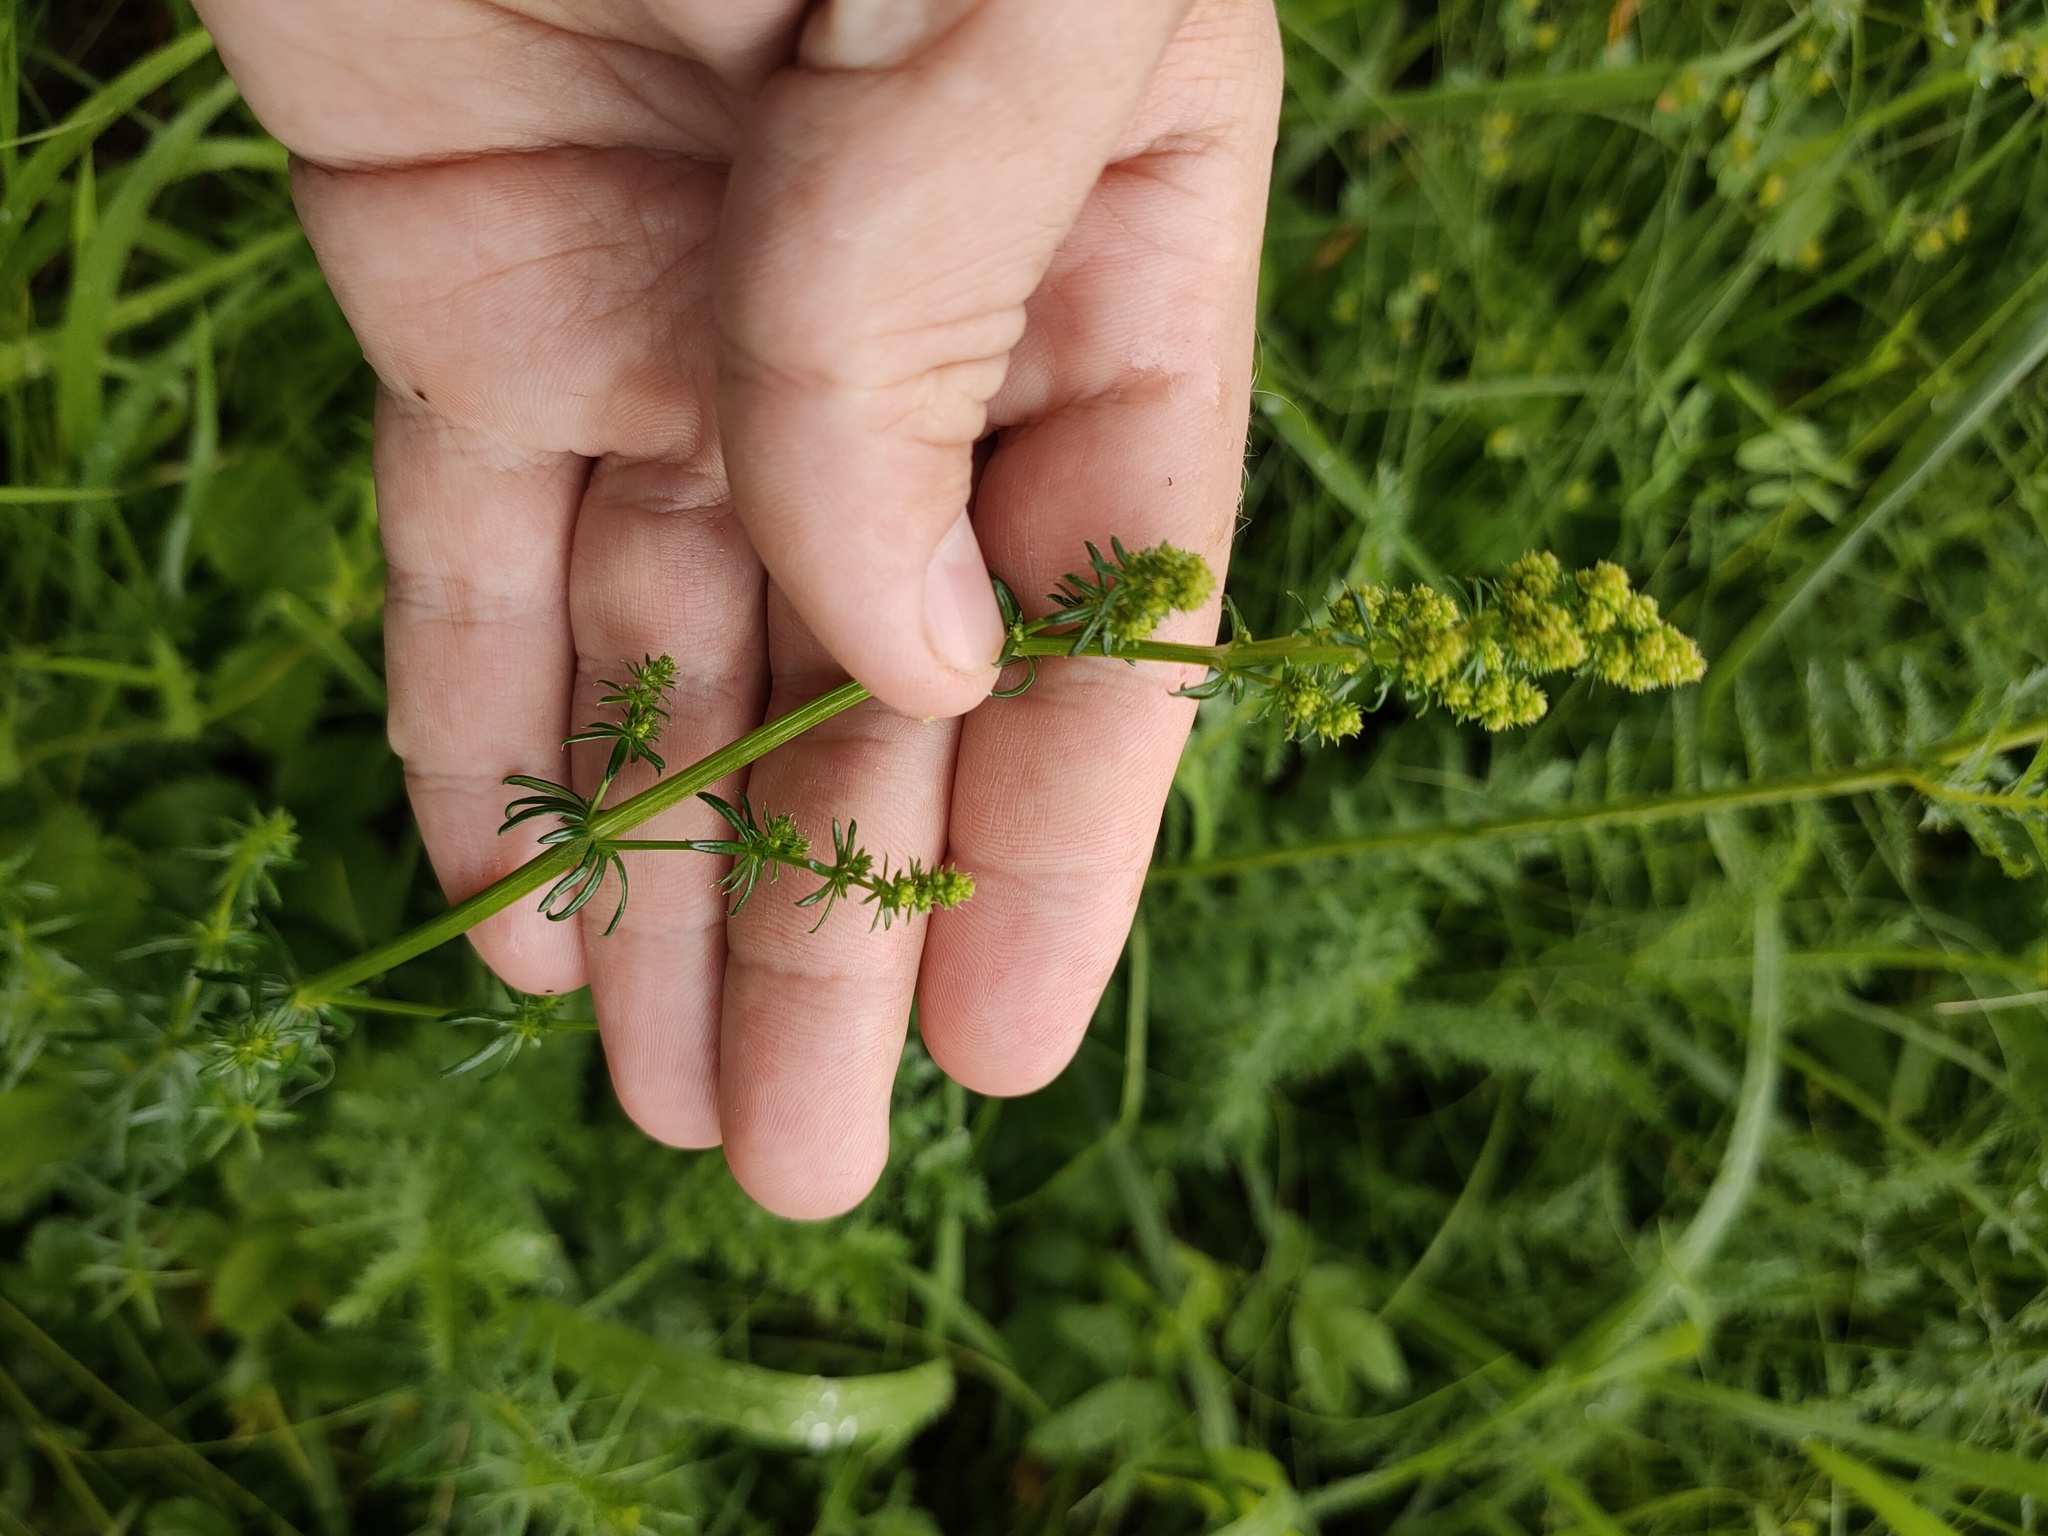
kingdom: Plantae
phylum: Tracheophyta
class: Magnoliopsida
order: Gentianales
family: Rubiaceae
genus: Galium
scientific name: Galium verum
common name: Lady's bedstraw
